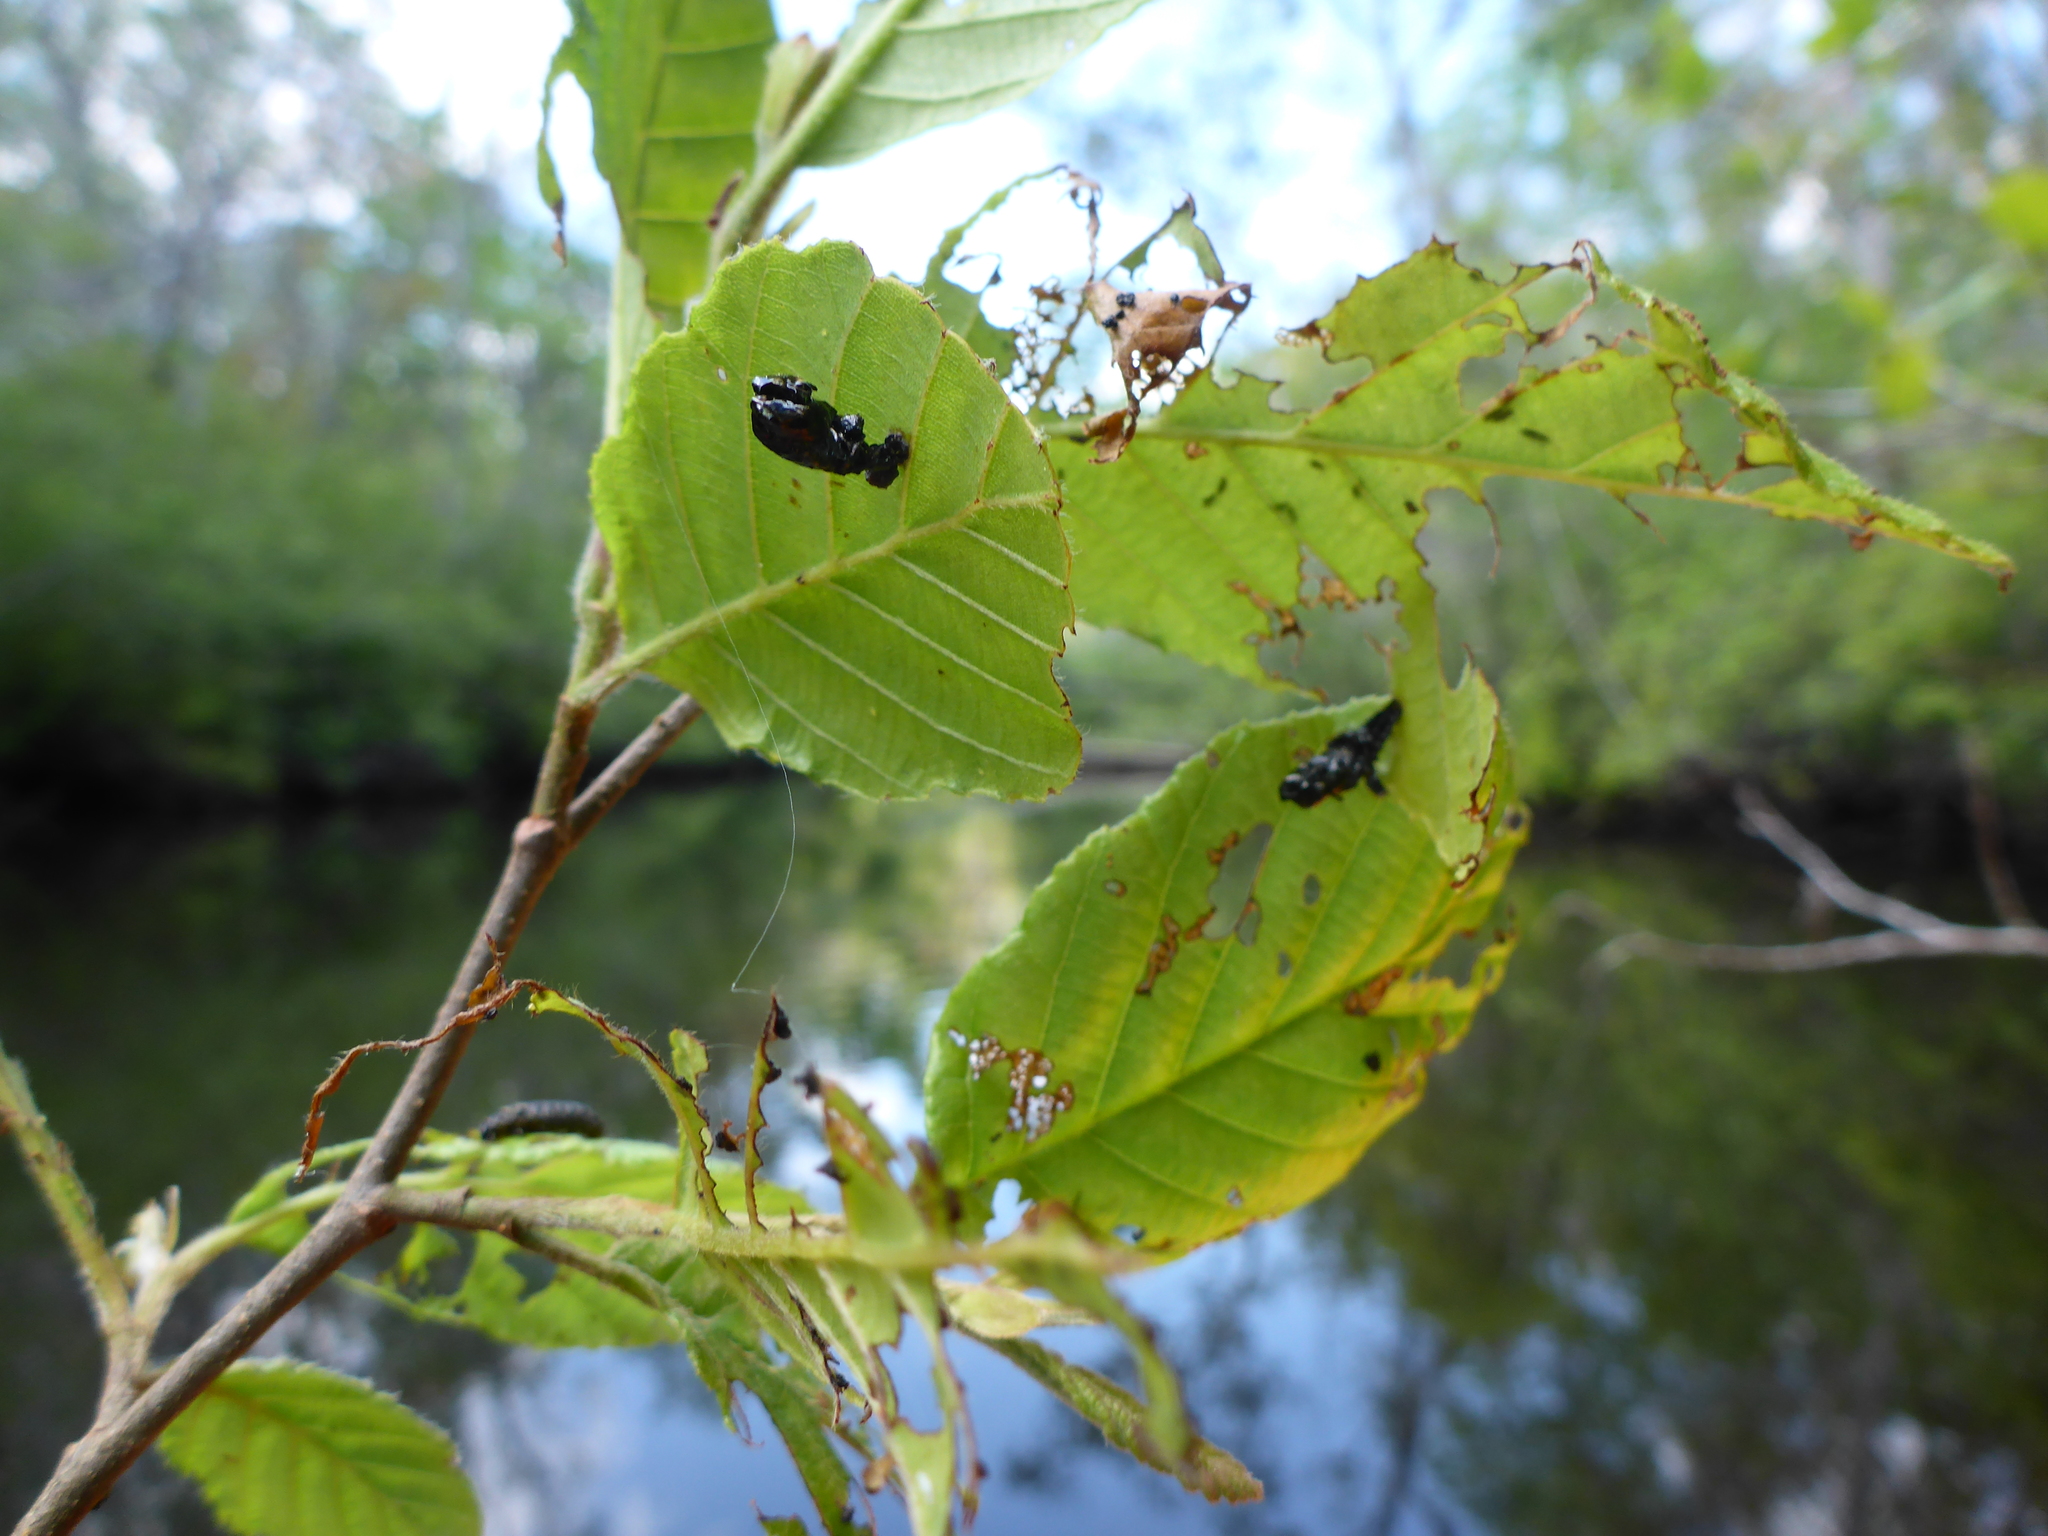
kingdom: Animalia
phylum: Arthropoda
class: Insecta
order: Coleoptera
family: Chrysomelidae
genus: Chrysomela
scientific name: Chrysomela interrupta
